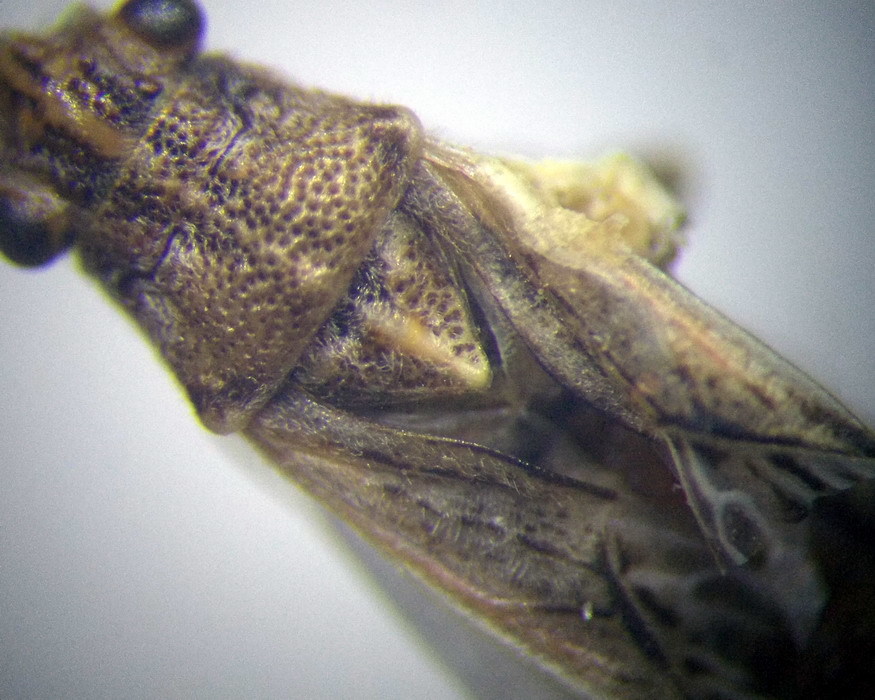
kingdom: Animalia
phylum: Arthropoda
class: Insecta
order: Hemiptera
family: Lygaeidae
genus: Nysius
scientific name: Nysius helveticus
